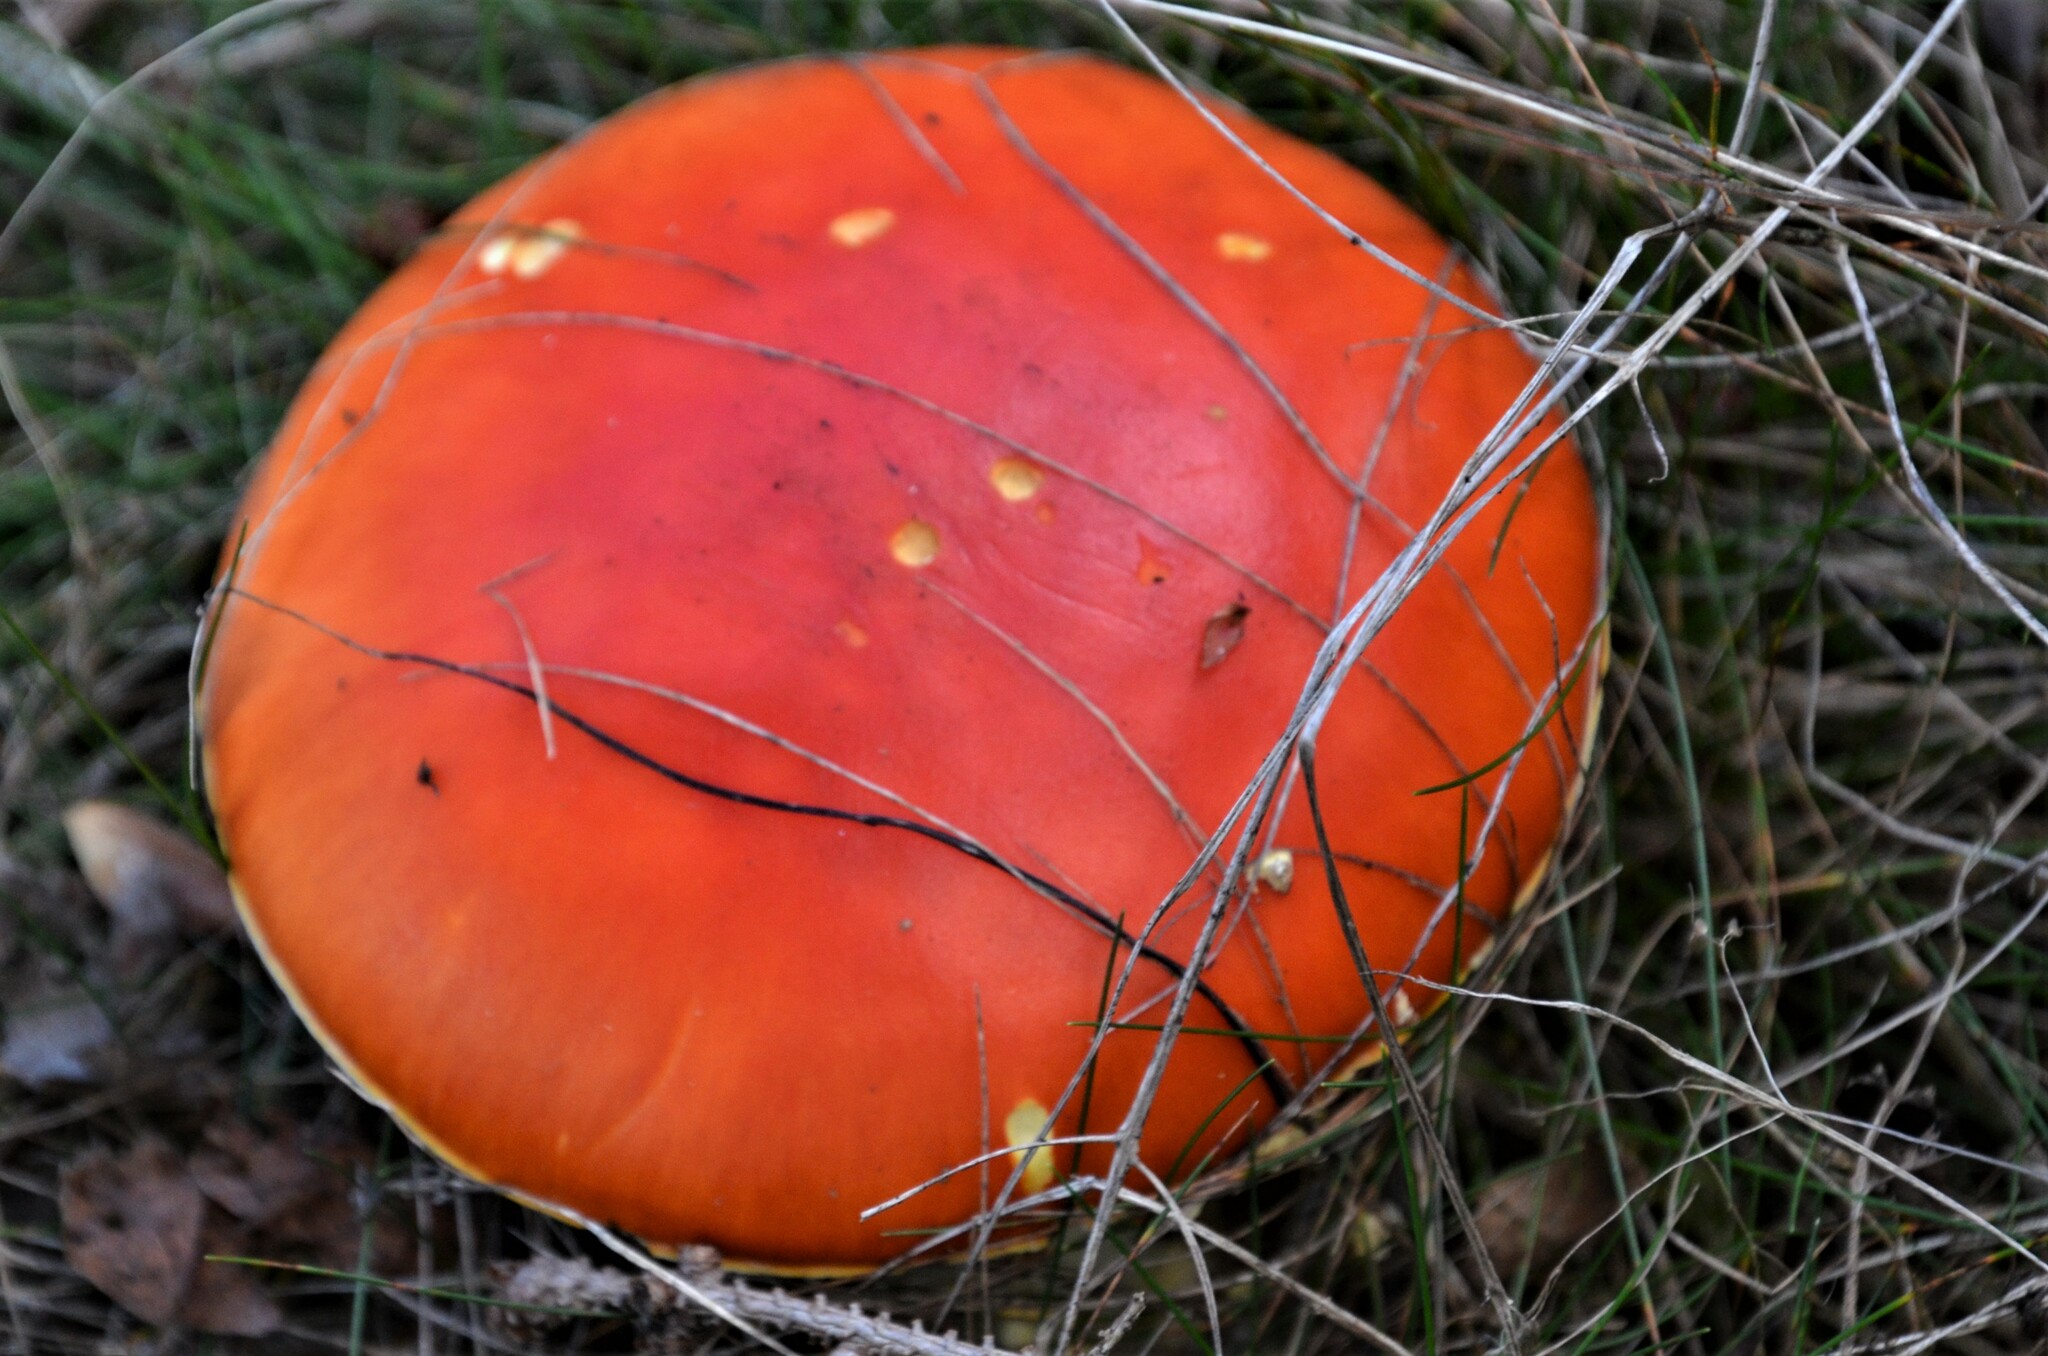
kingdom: Fungi
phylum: Basidiomycota
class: Agaricomycetes
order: Agaricales
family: Amanitaceae
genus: Amanita
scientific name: Amanita muscaria
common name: Fly agaric
